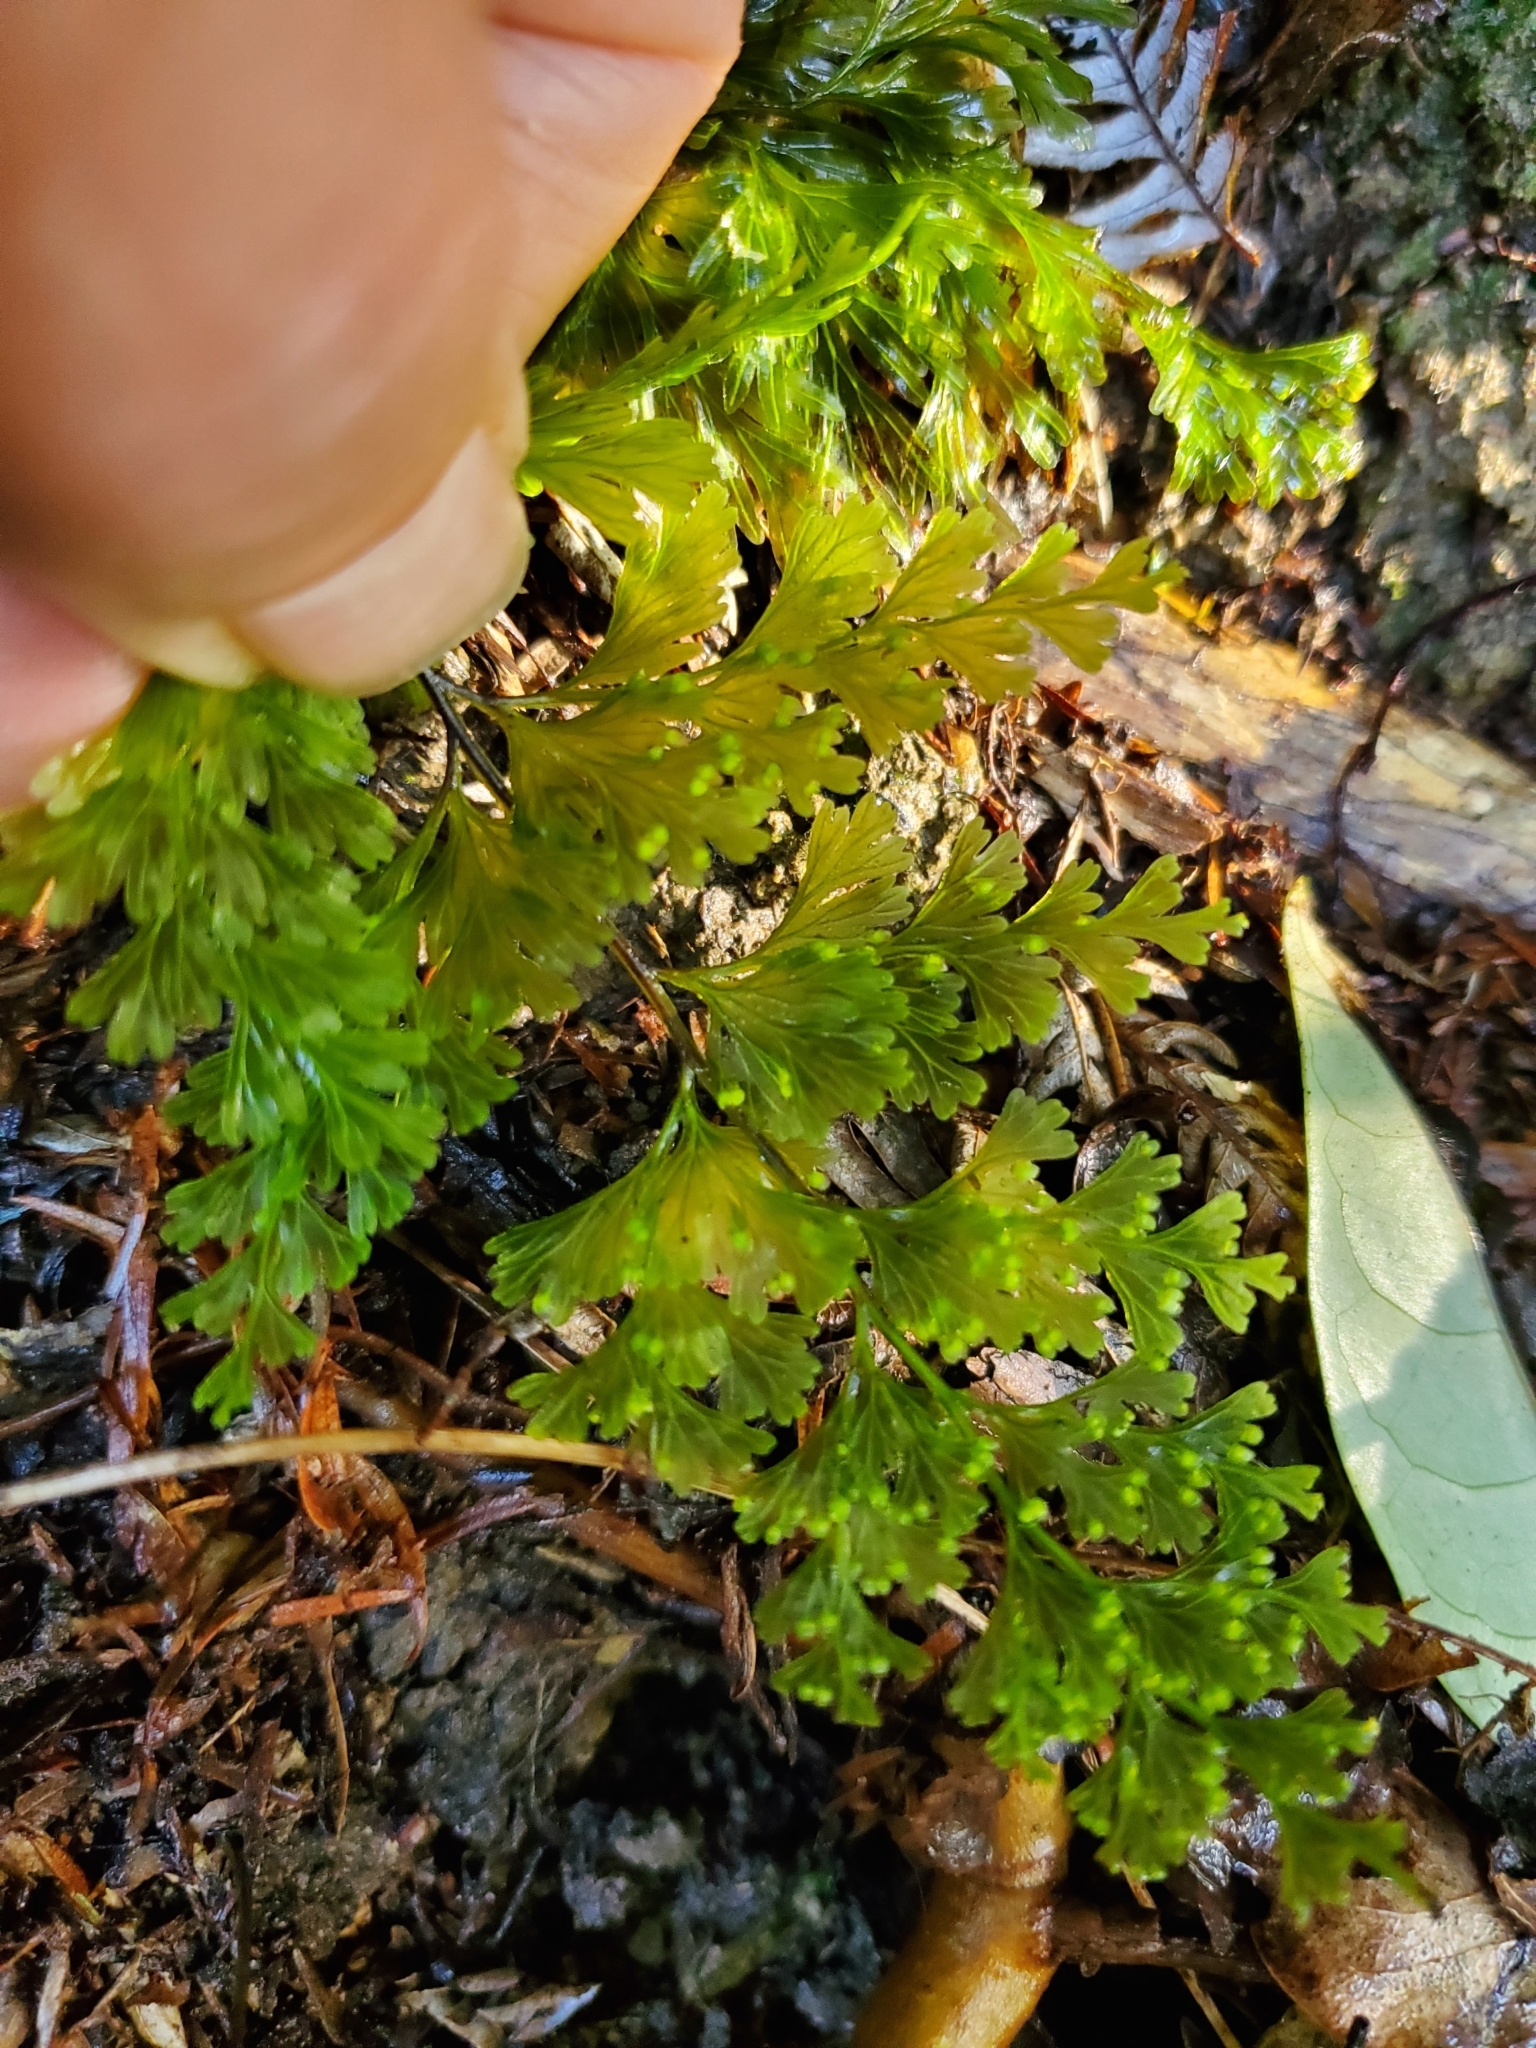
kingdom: Plantae
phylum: Tracheophyta
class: Polypodiopsida
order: Hymenophyllales
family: Hymenophyllaceae
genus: Hymenophyllum
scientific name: Hymenophyllum demissum
